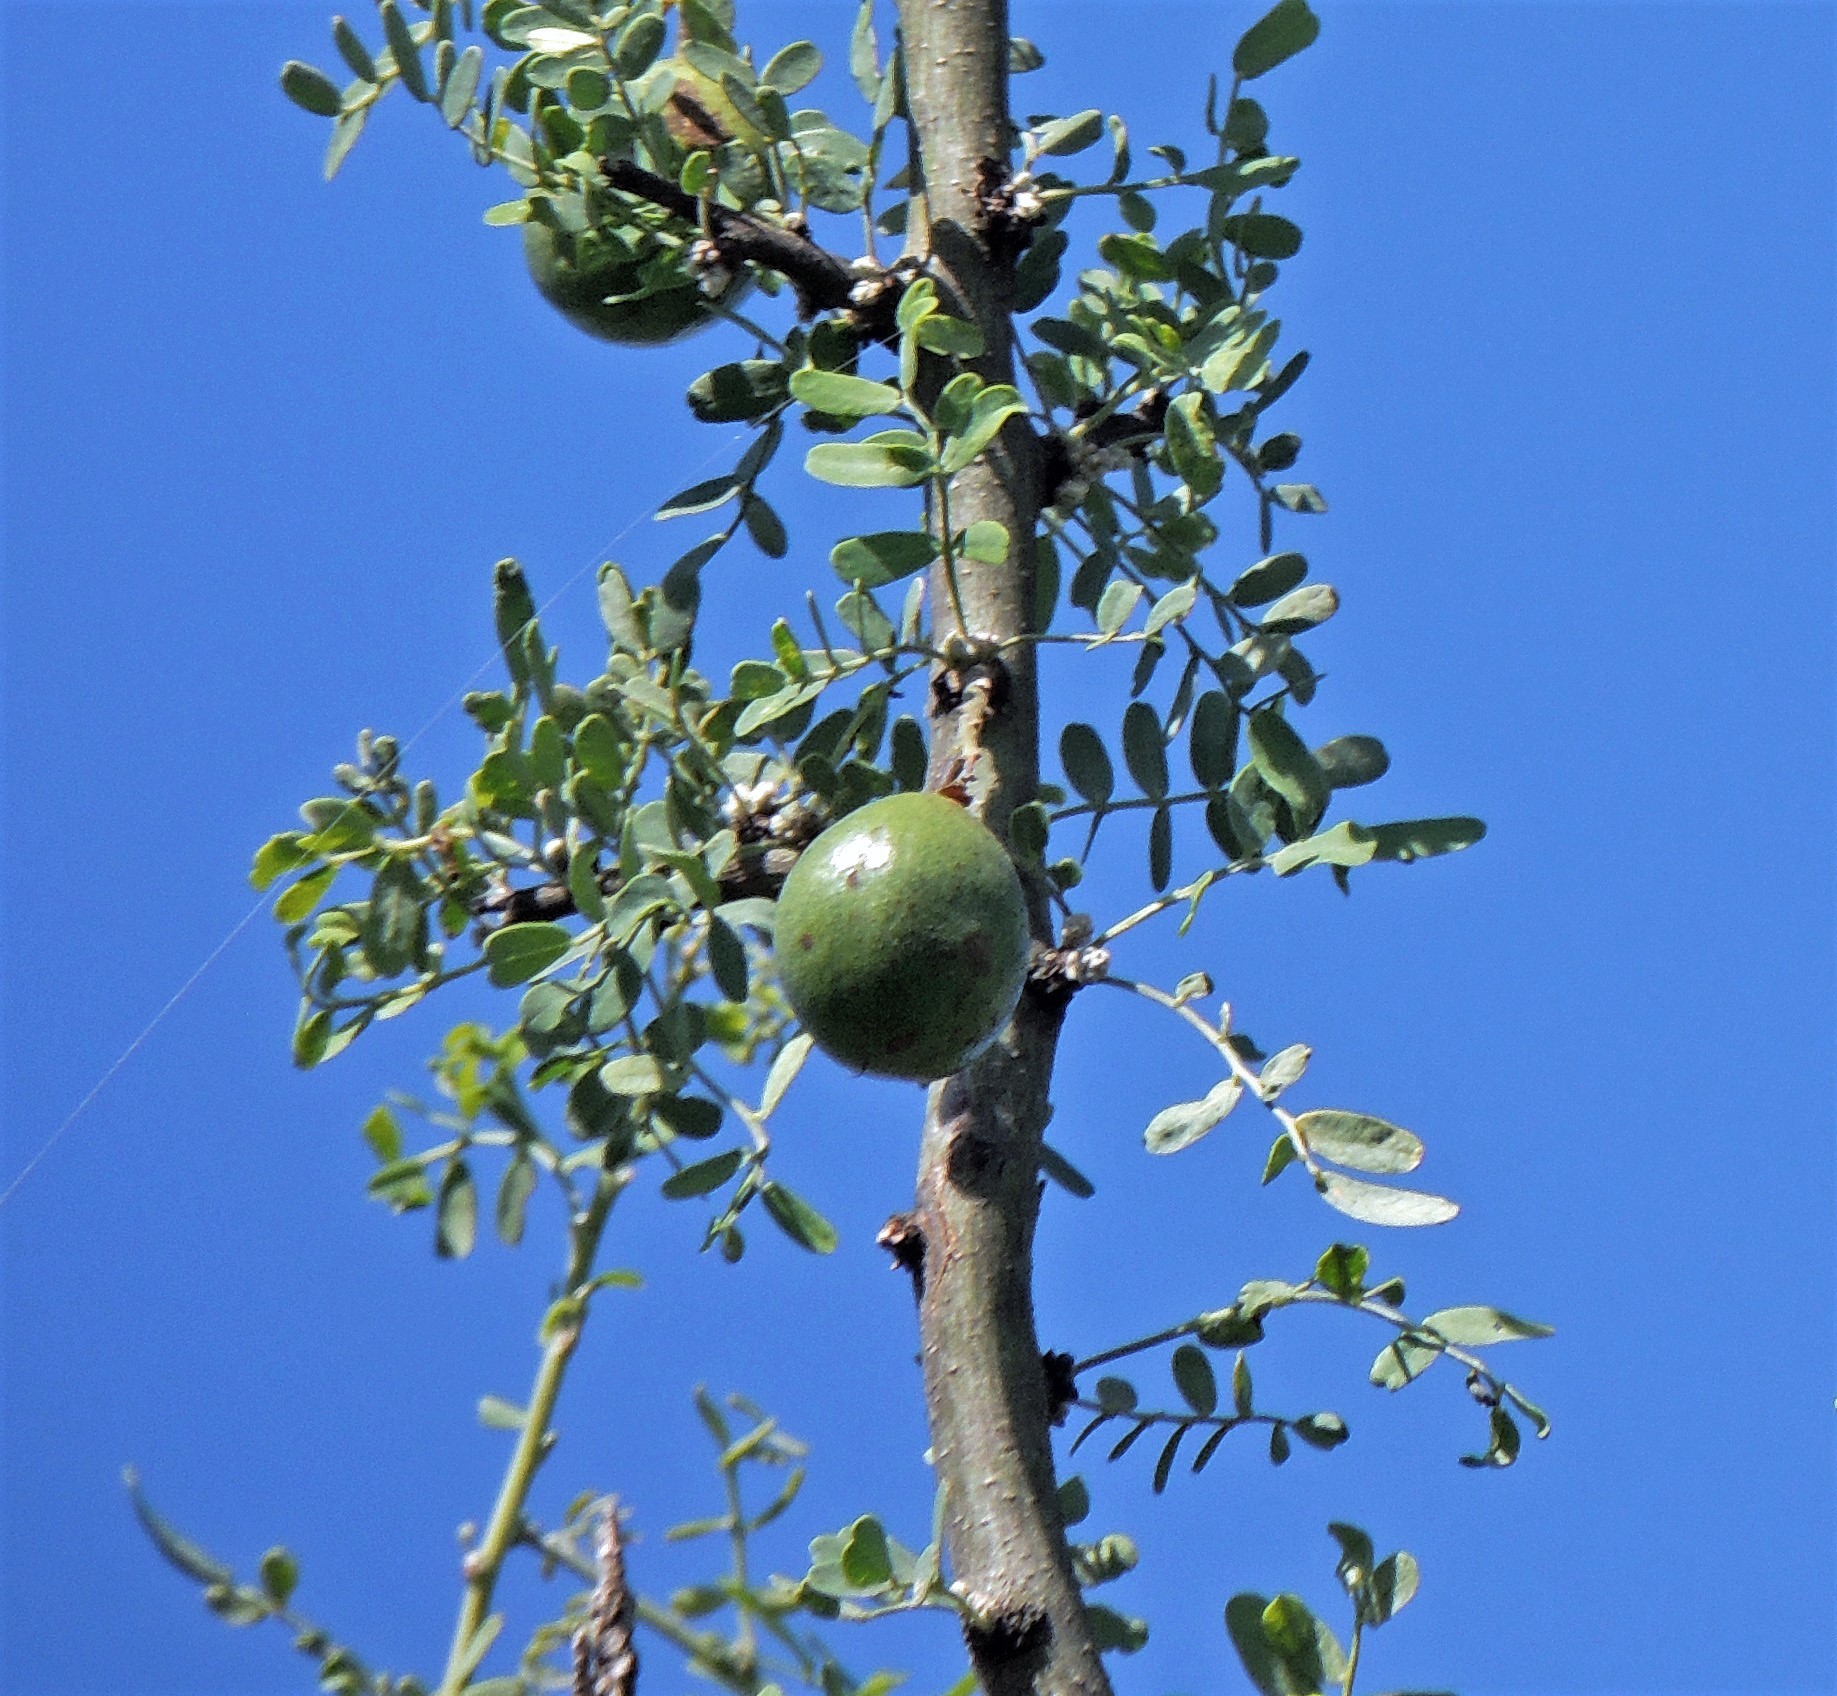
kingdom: Plantae
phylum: Tracheophyta
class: Magnoliopsida
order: Fabales
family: Fabaceae
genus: Geoffroea
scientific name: Geoffroea decorticans
